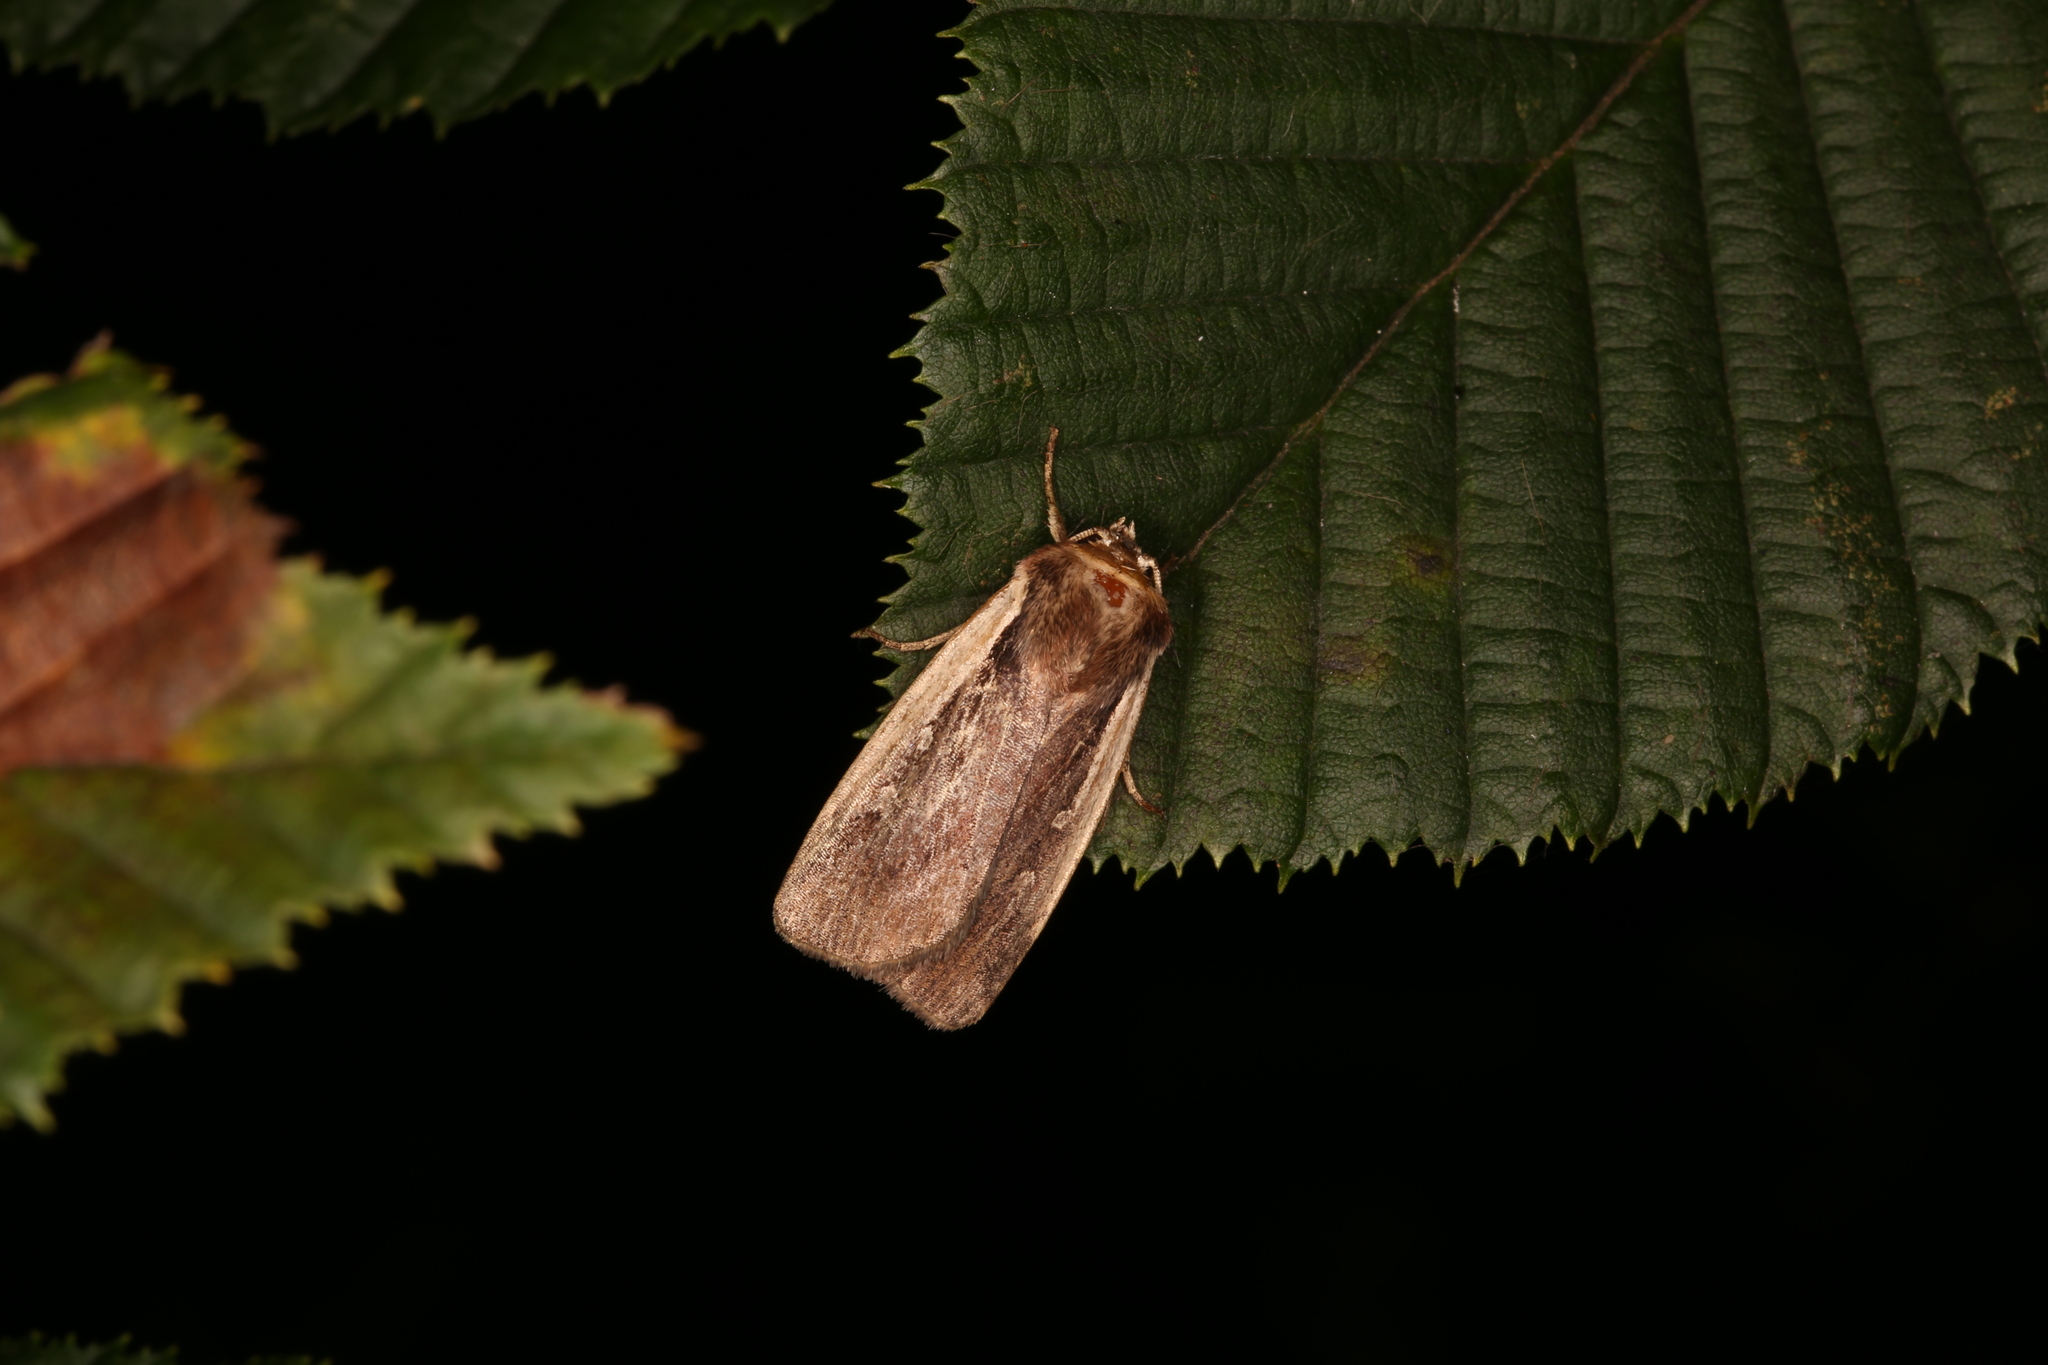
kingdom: Animalia
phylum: Arthropoda
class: Insecta
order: Lepidoptera
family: Noctuidae
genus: Ochropleura
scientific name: Ochropleura plecta
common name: Flame shoulder
